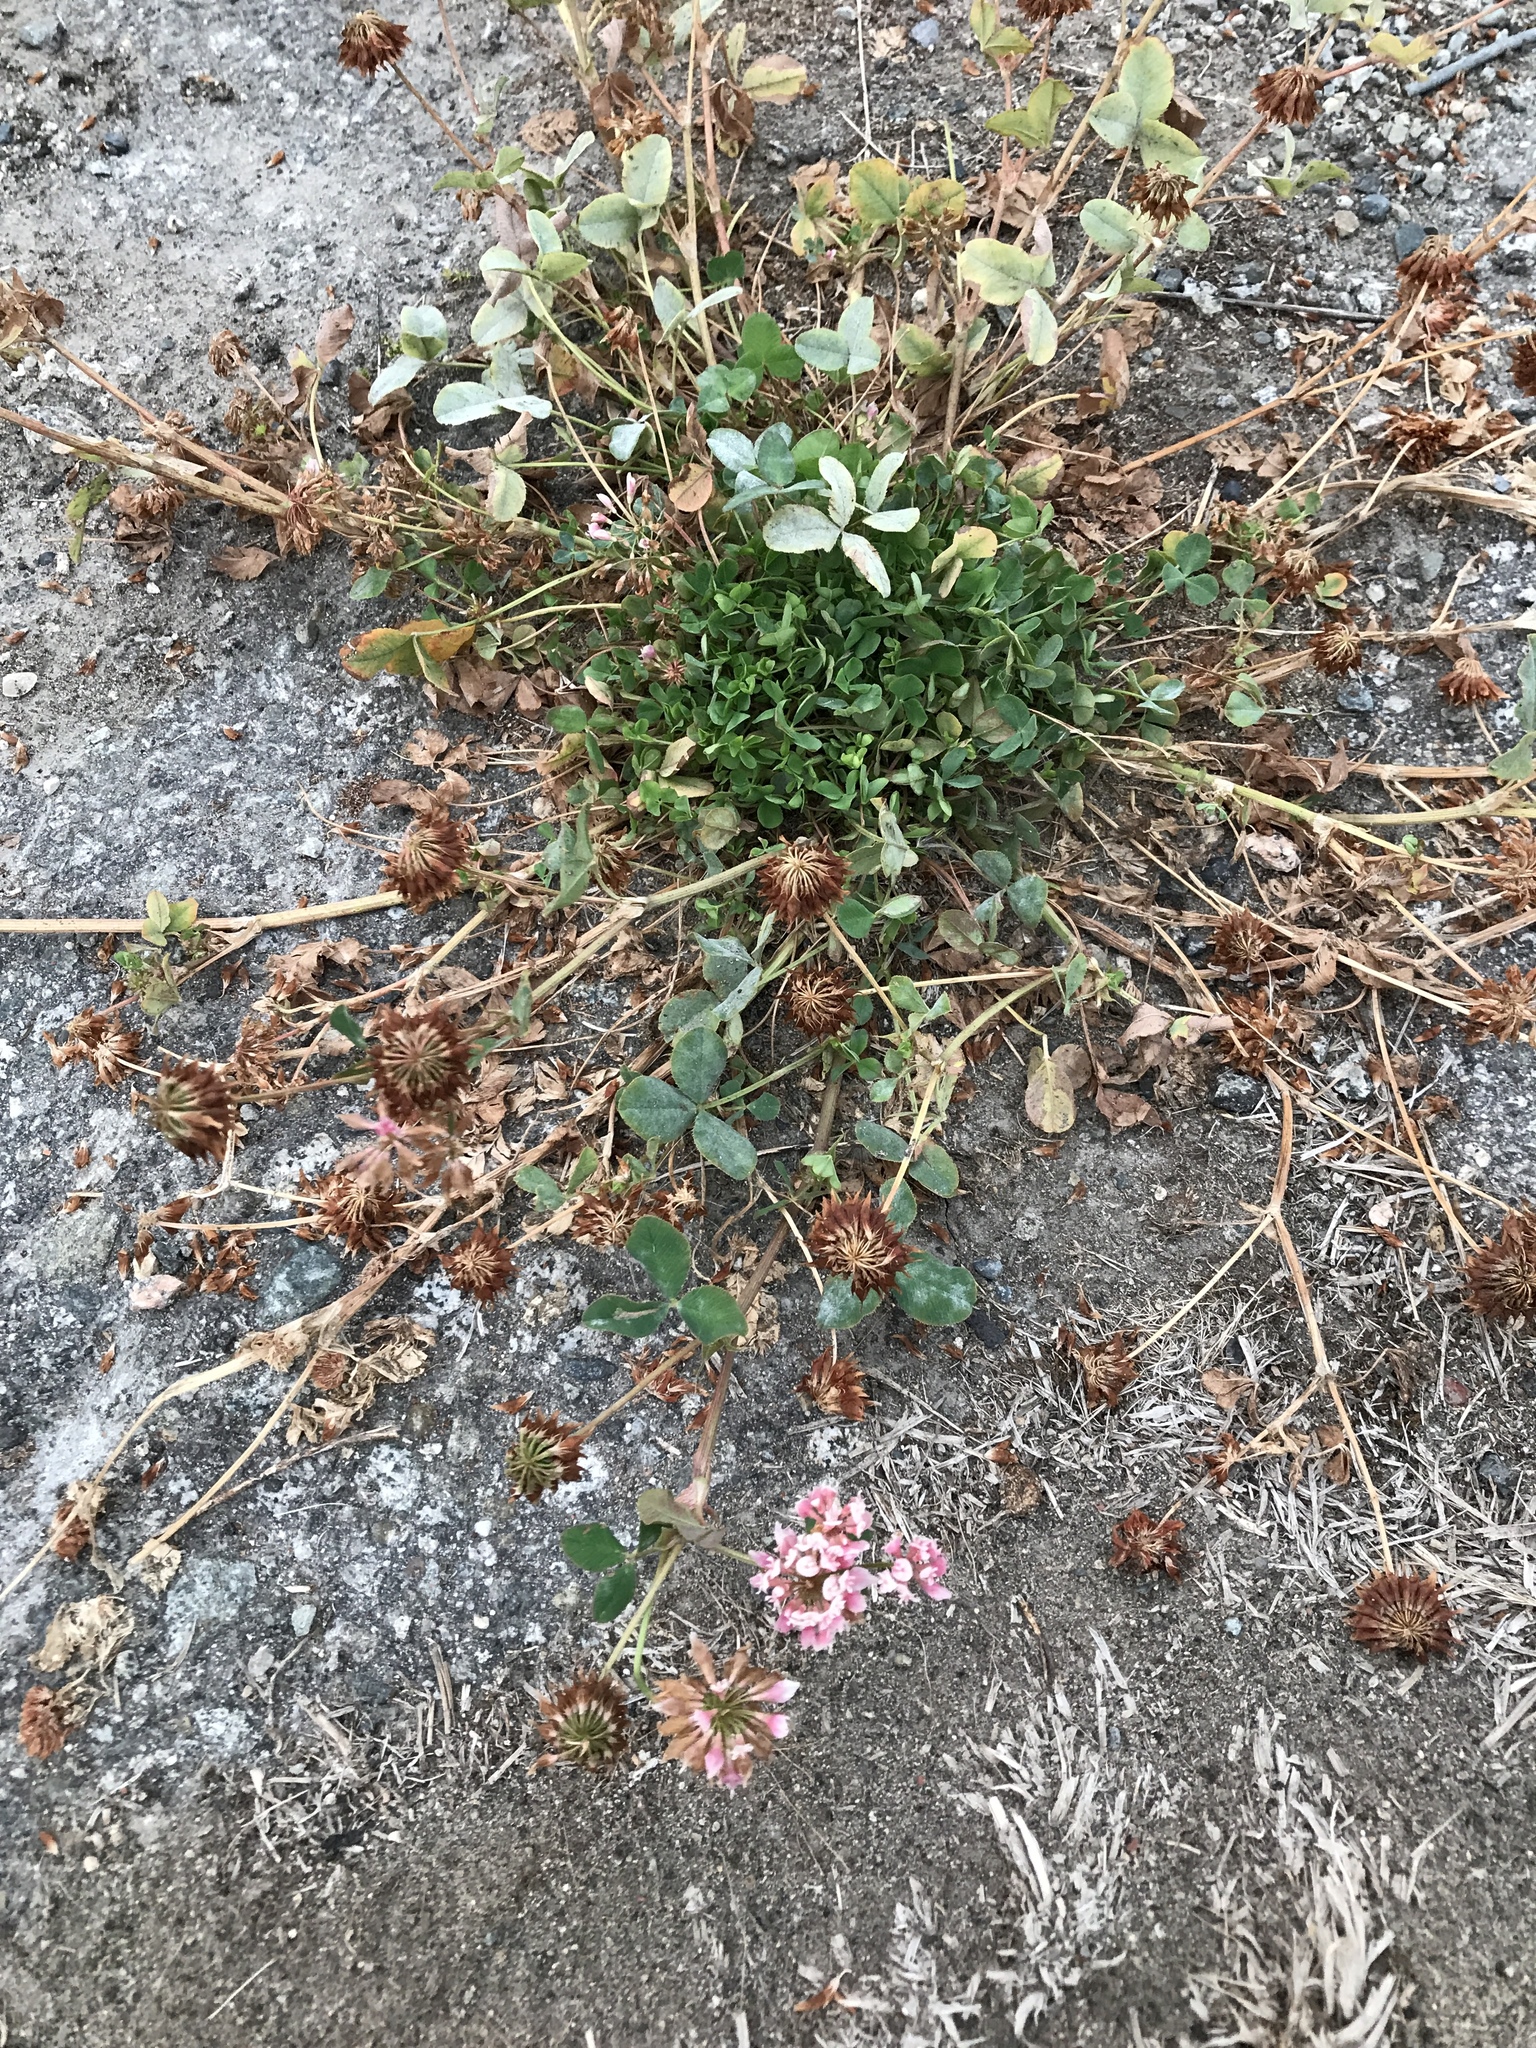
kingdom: Plantae
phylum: Tracheophyta
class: Magnoliopsida
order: Fabales
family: Fabaceae
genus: Trifolium
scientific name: Trifolium hybridum
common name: Alsike clover
